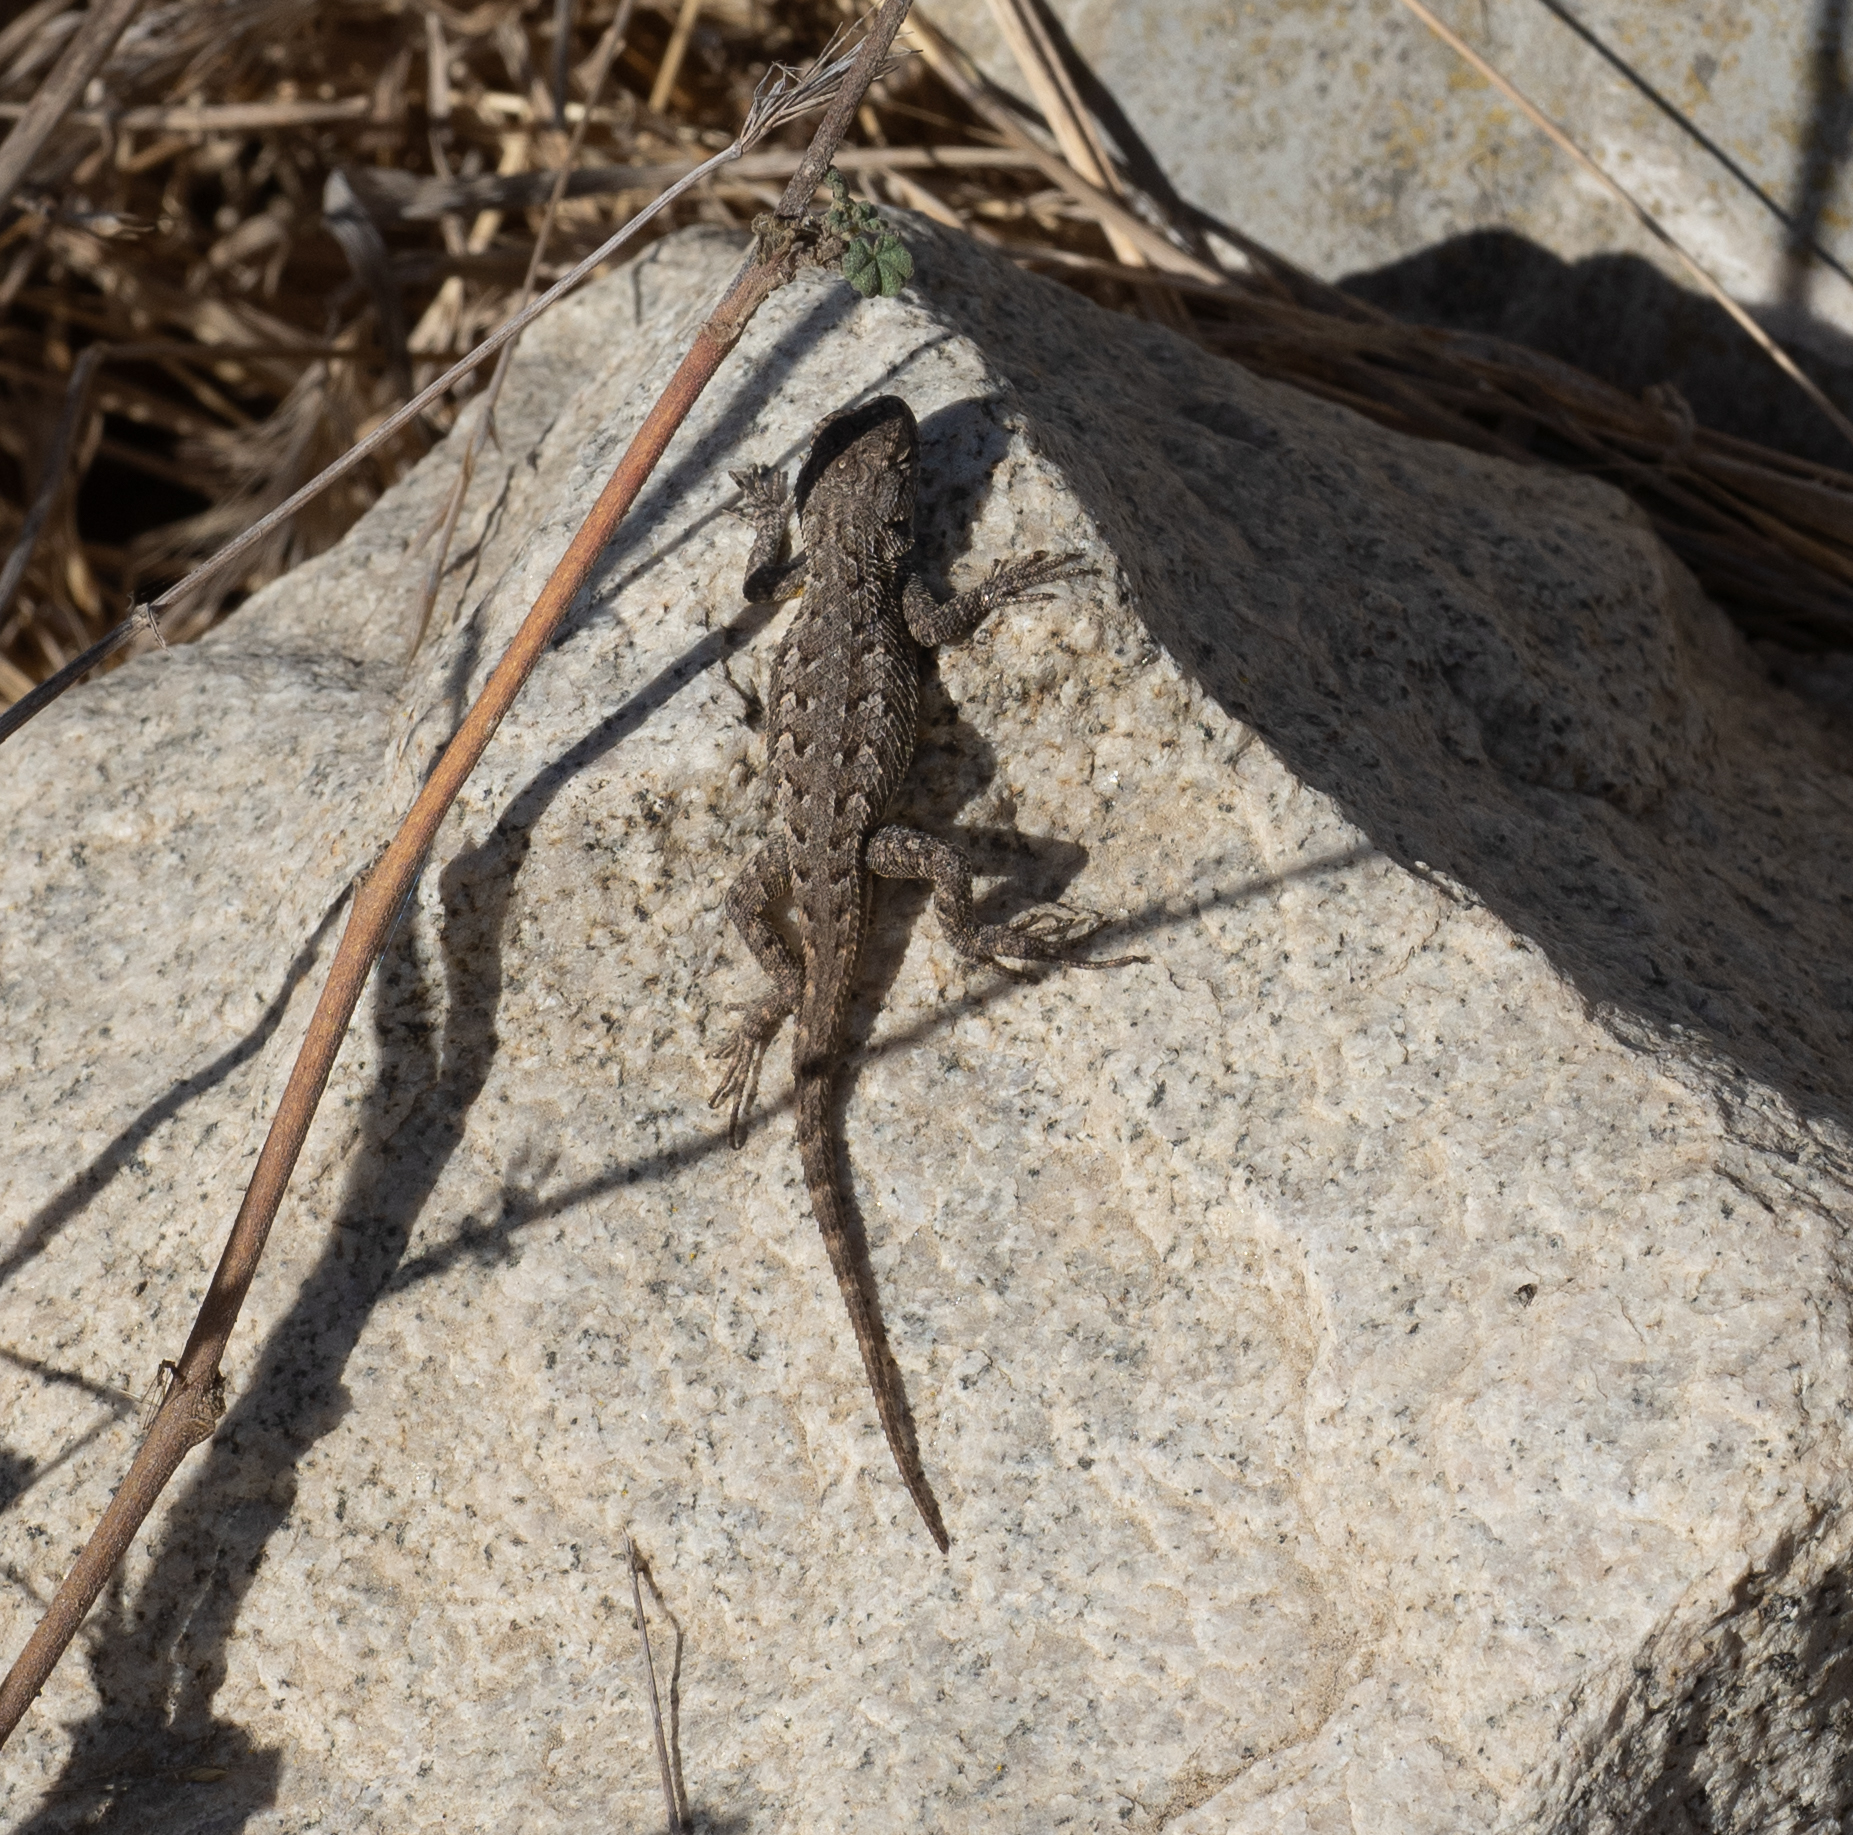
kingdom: Animalia
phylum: Chordata
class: Squamata
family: Phrynosomatidae
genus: Sceloporus
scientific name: Sceloporus occidentalis
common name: Western fence lizard
